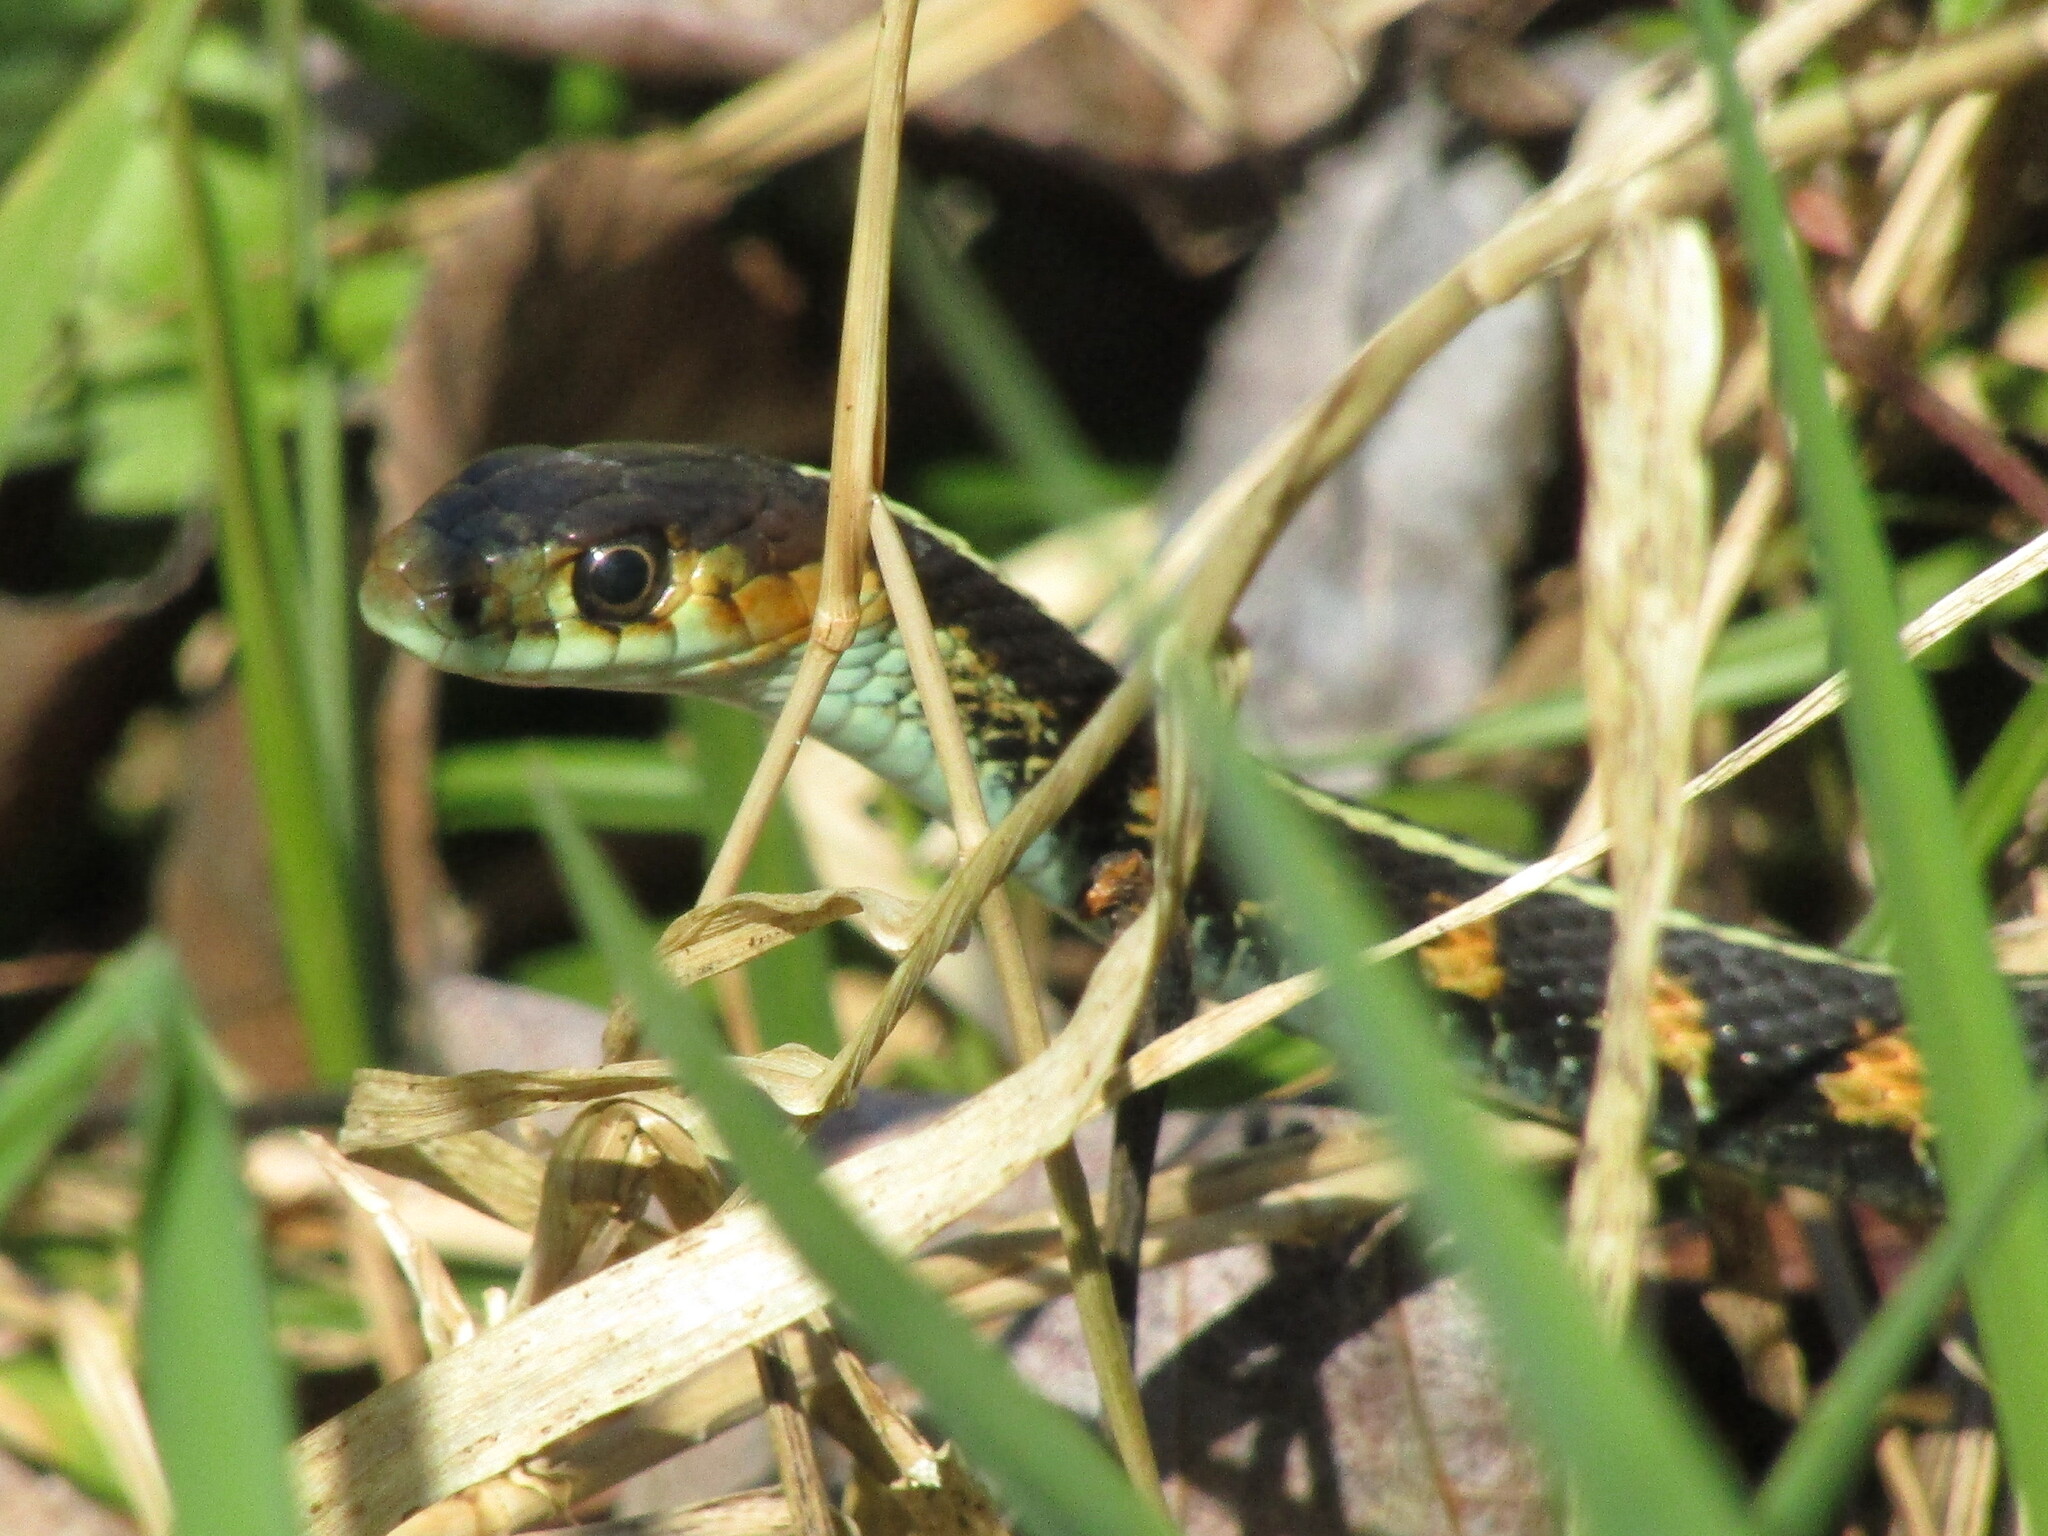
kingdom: Animalia
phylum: Chordata
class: Squamata
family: Colubridae
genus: Thamnophis
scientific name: Thamnophis sirtalis
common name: Common garter snake
